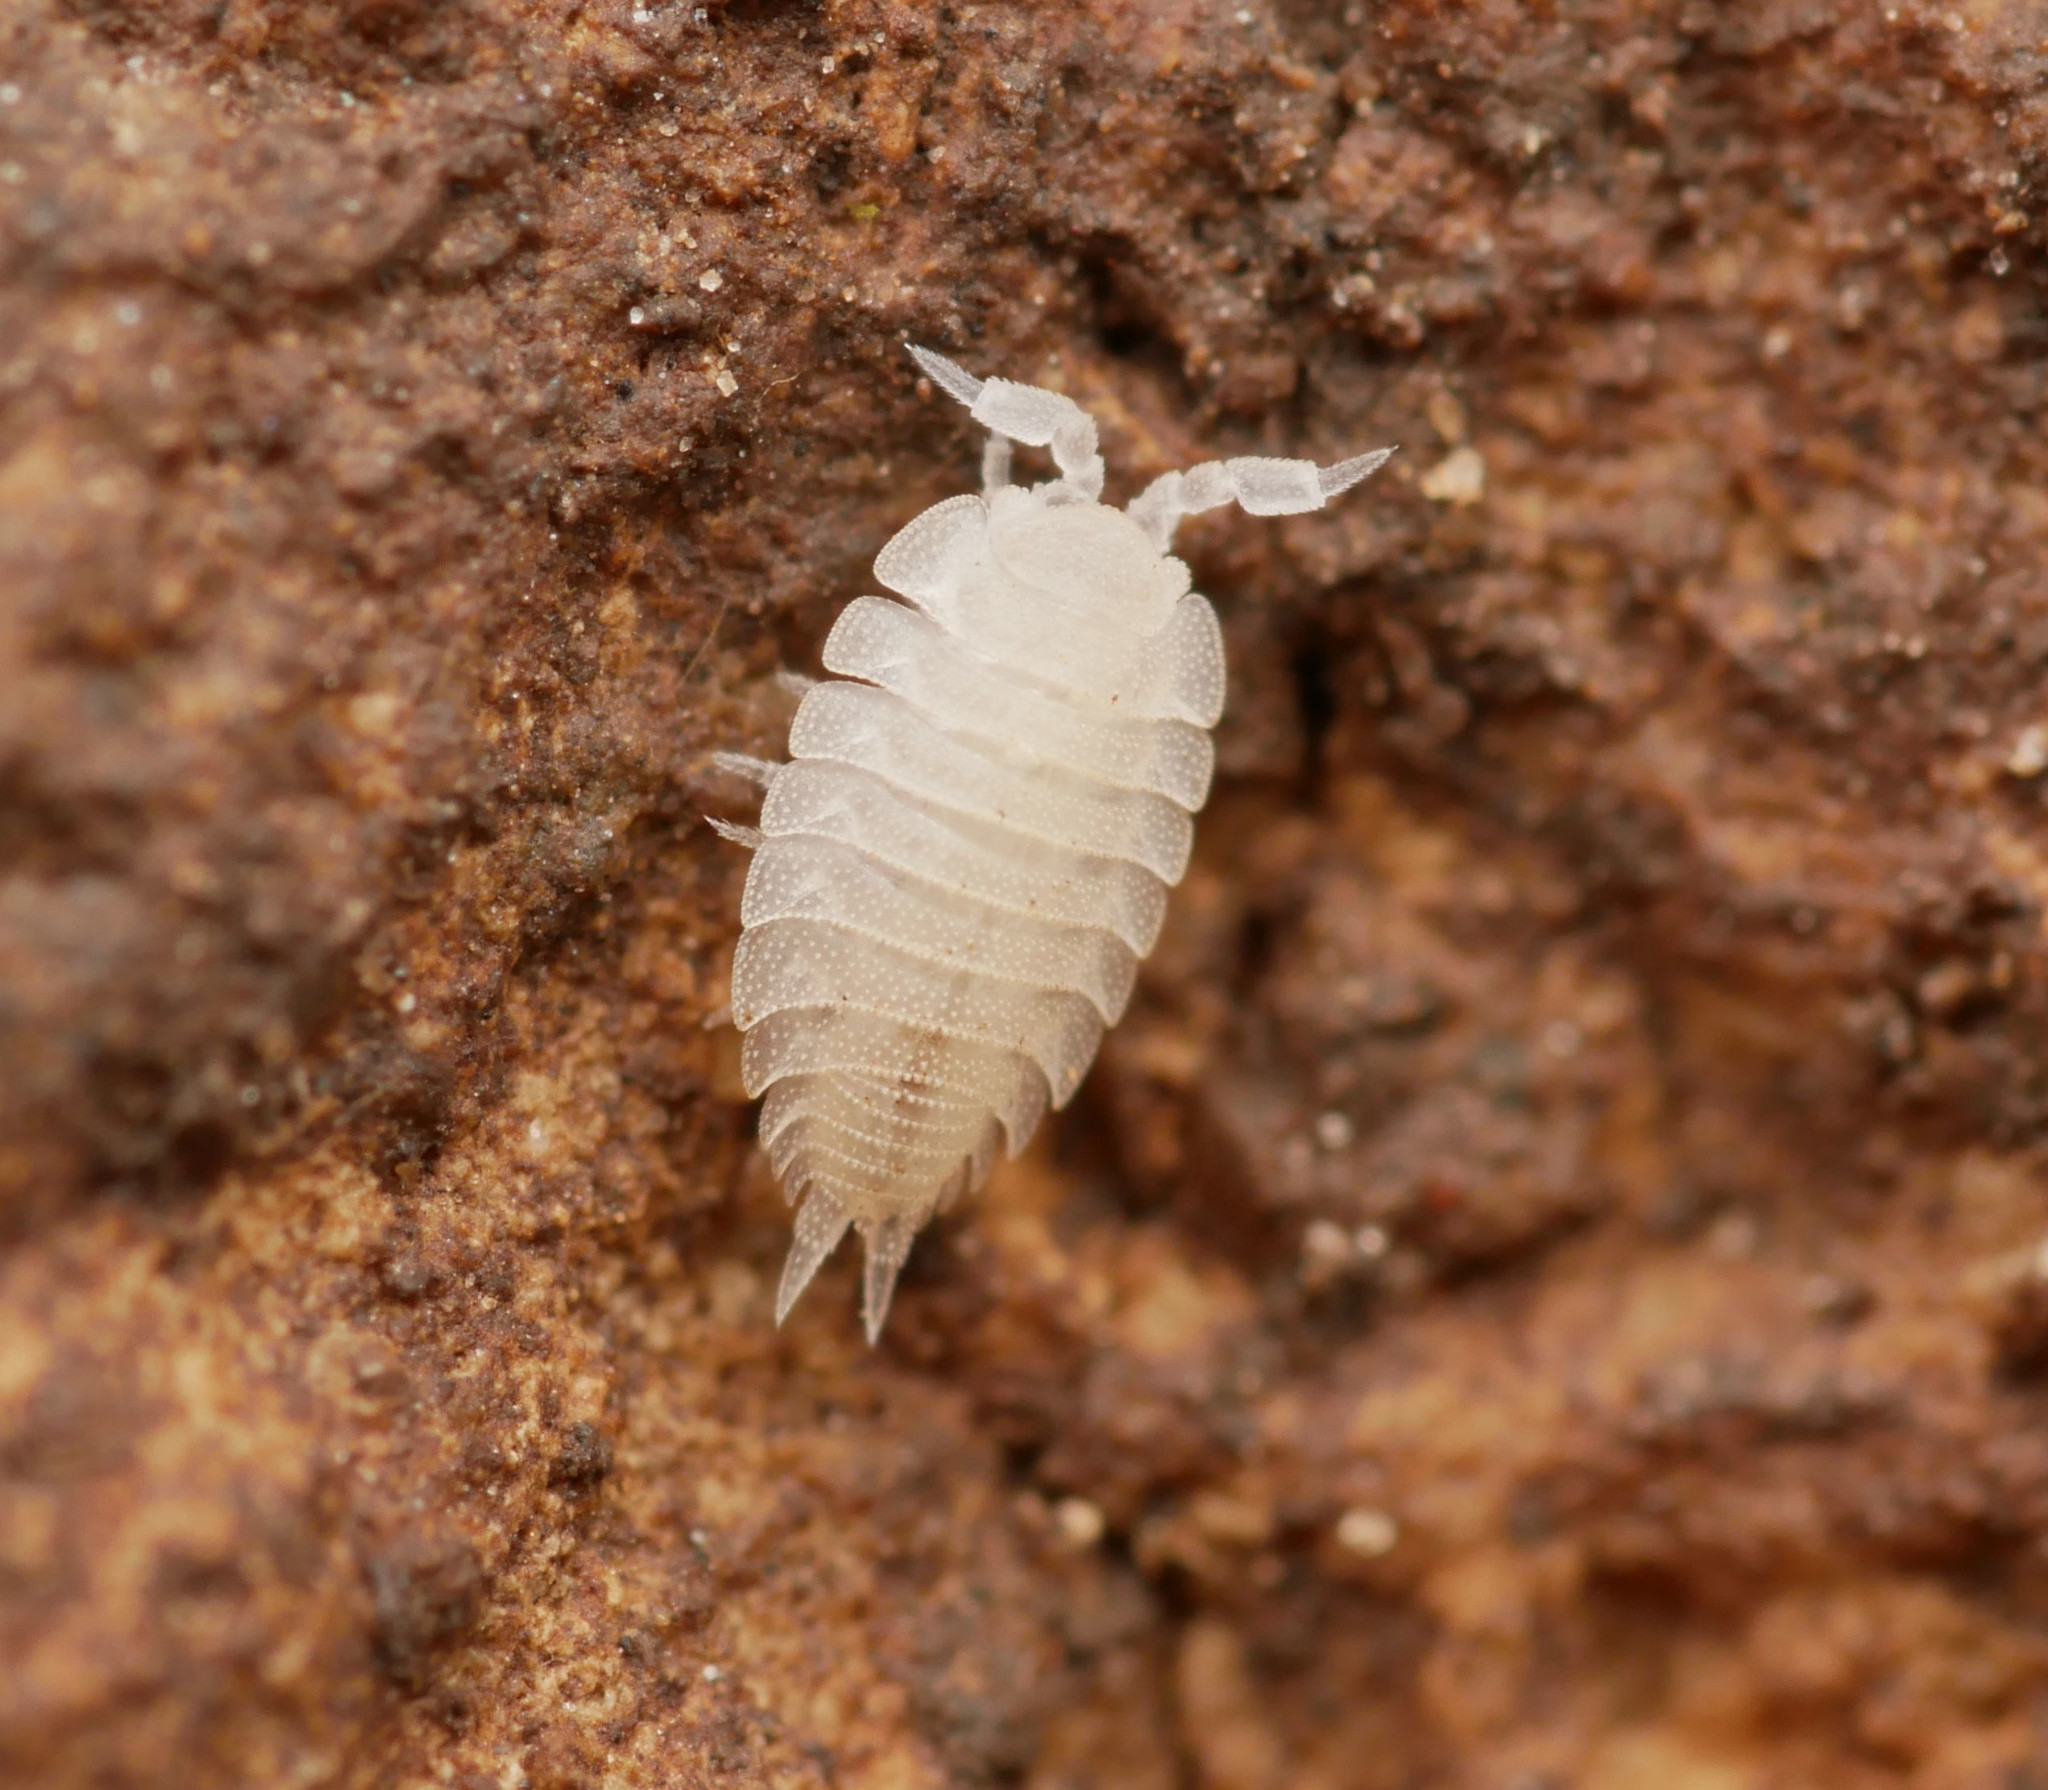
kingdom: Animalia
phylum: Arthropoda
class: Malacostraca
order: Isopoda
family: Platyarthridae
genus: Platyarthrus
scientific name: Platyarthrus hoffmannseggii
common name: Ant woodlouse
